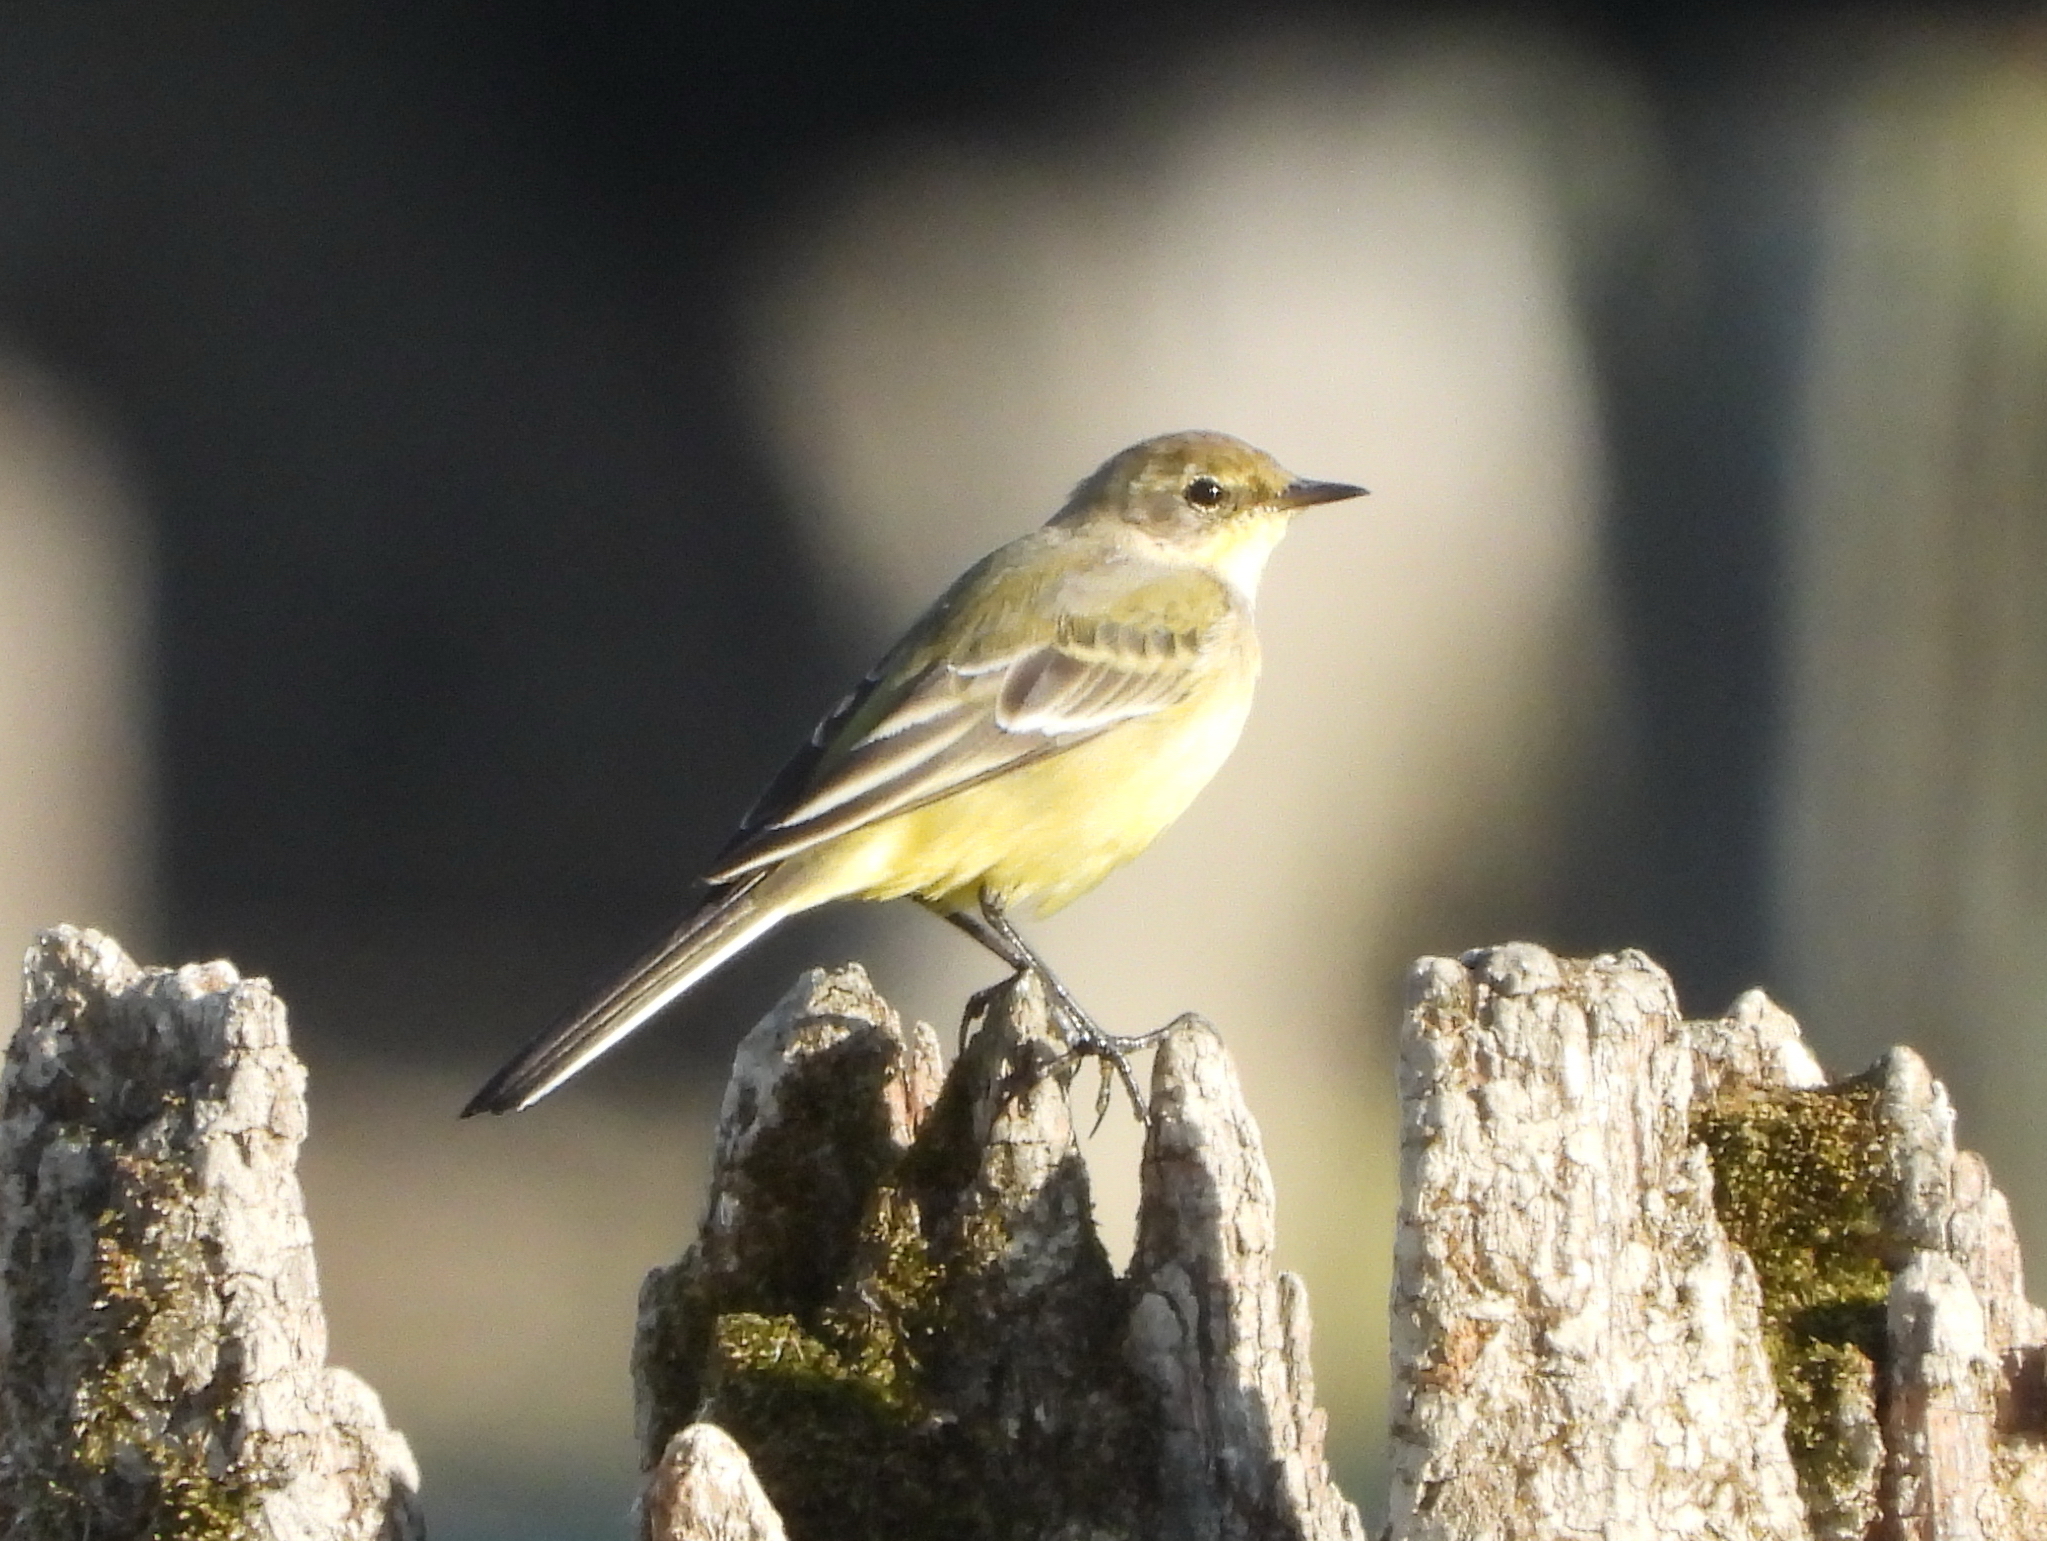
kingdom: Animalia
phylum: Chordata
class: Aves
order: Passeriformes
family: Motacillidae
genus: Motacilla
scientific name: Motacilla flava
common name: Western yellow wagtail
